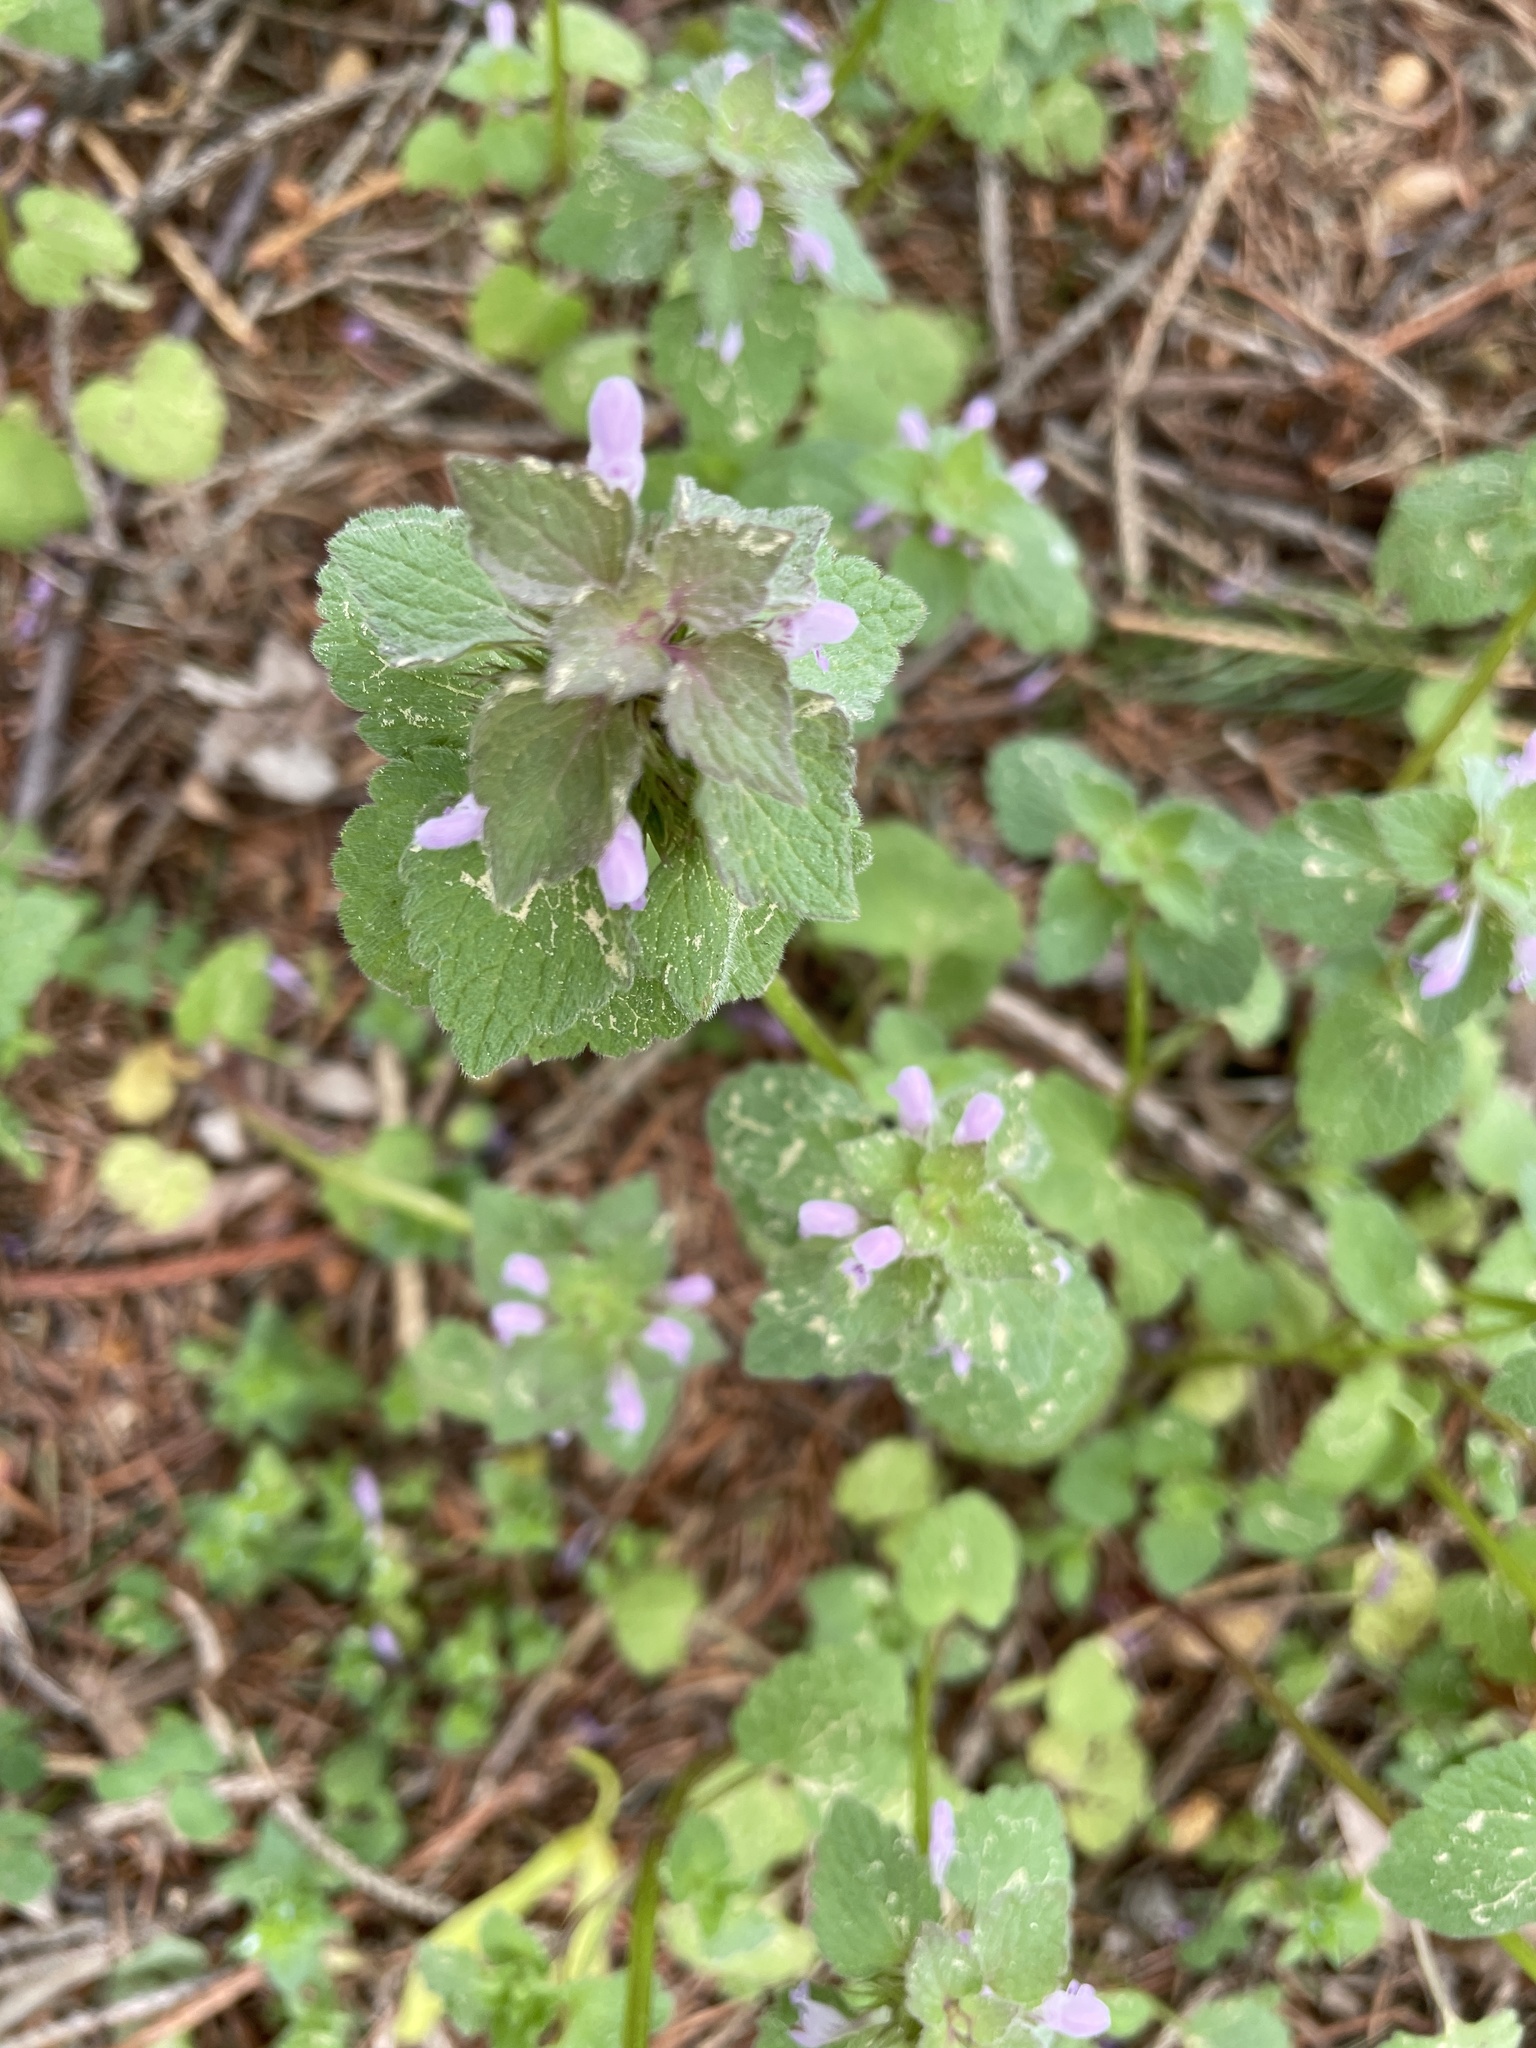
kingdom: Plantae
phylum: Tracheophyta
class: Magnoliopsida
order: Lamiales
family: Lamiaceae
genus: Lamium
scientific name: Lamium purpureum
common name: Red dead-nettle
